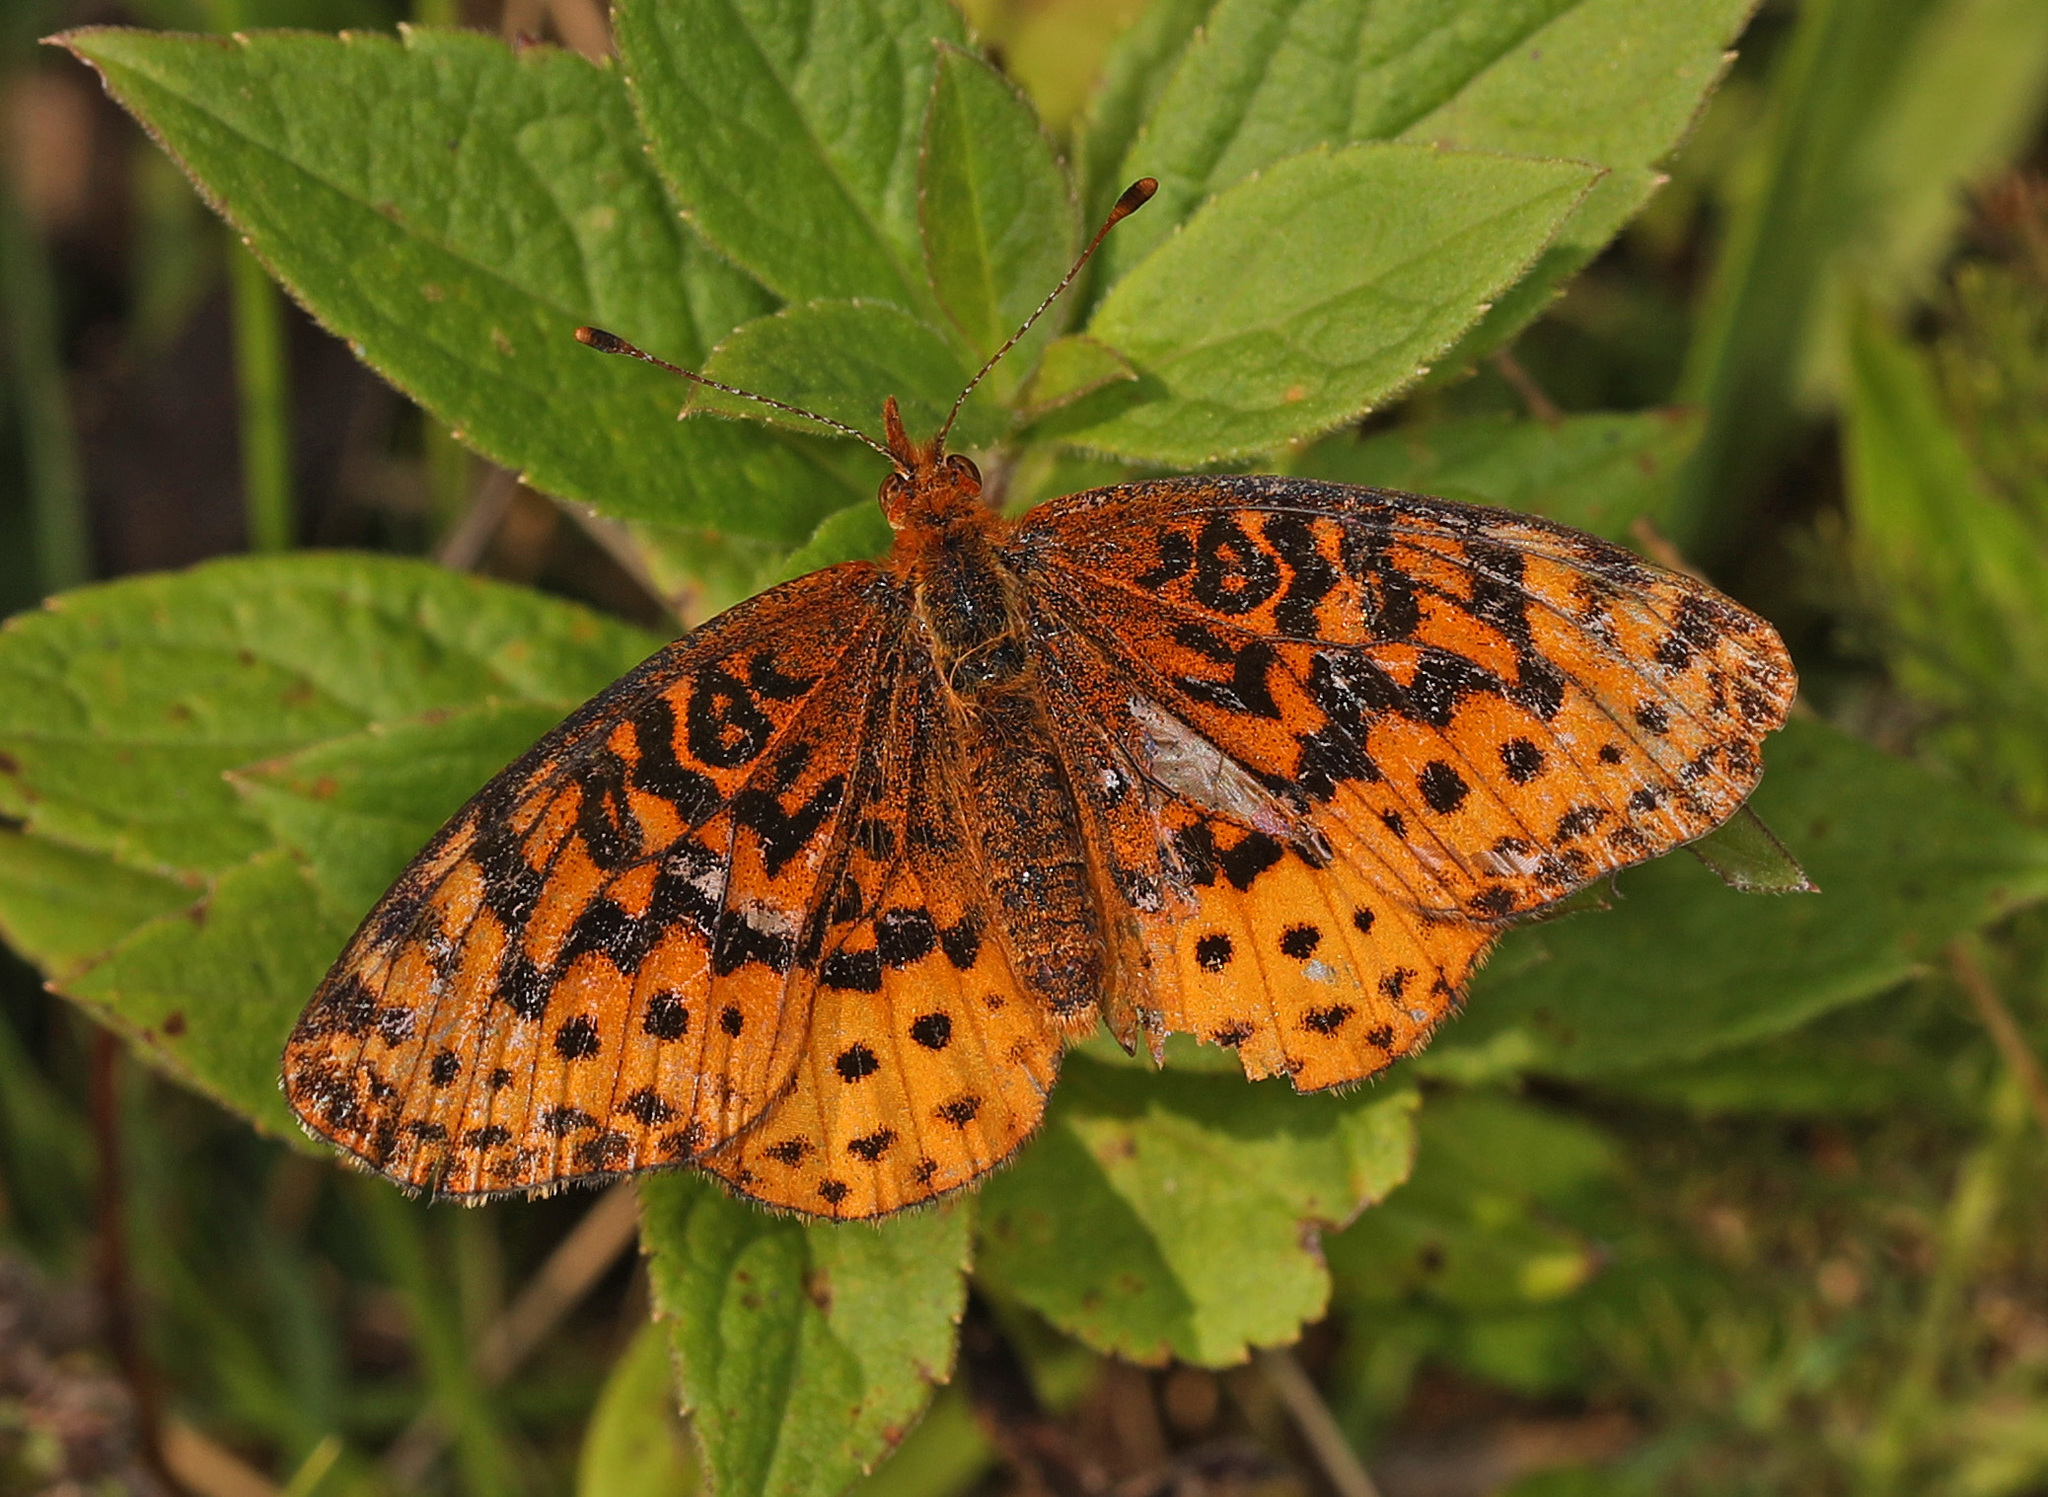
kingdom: Animalia
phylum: Arthropoda
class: Insecta
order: Lepidoptera
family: Nymphalidae
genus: Clossiana
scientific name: Clossiana toddi
